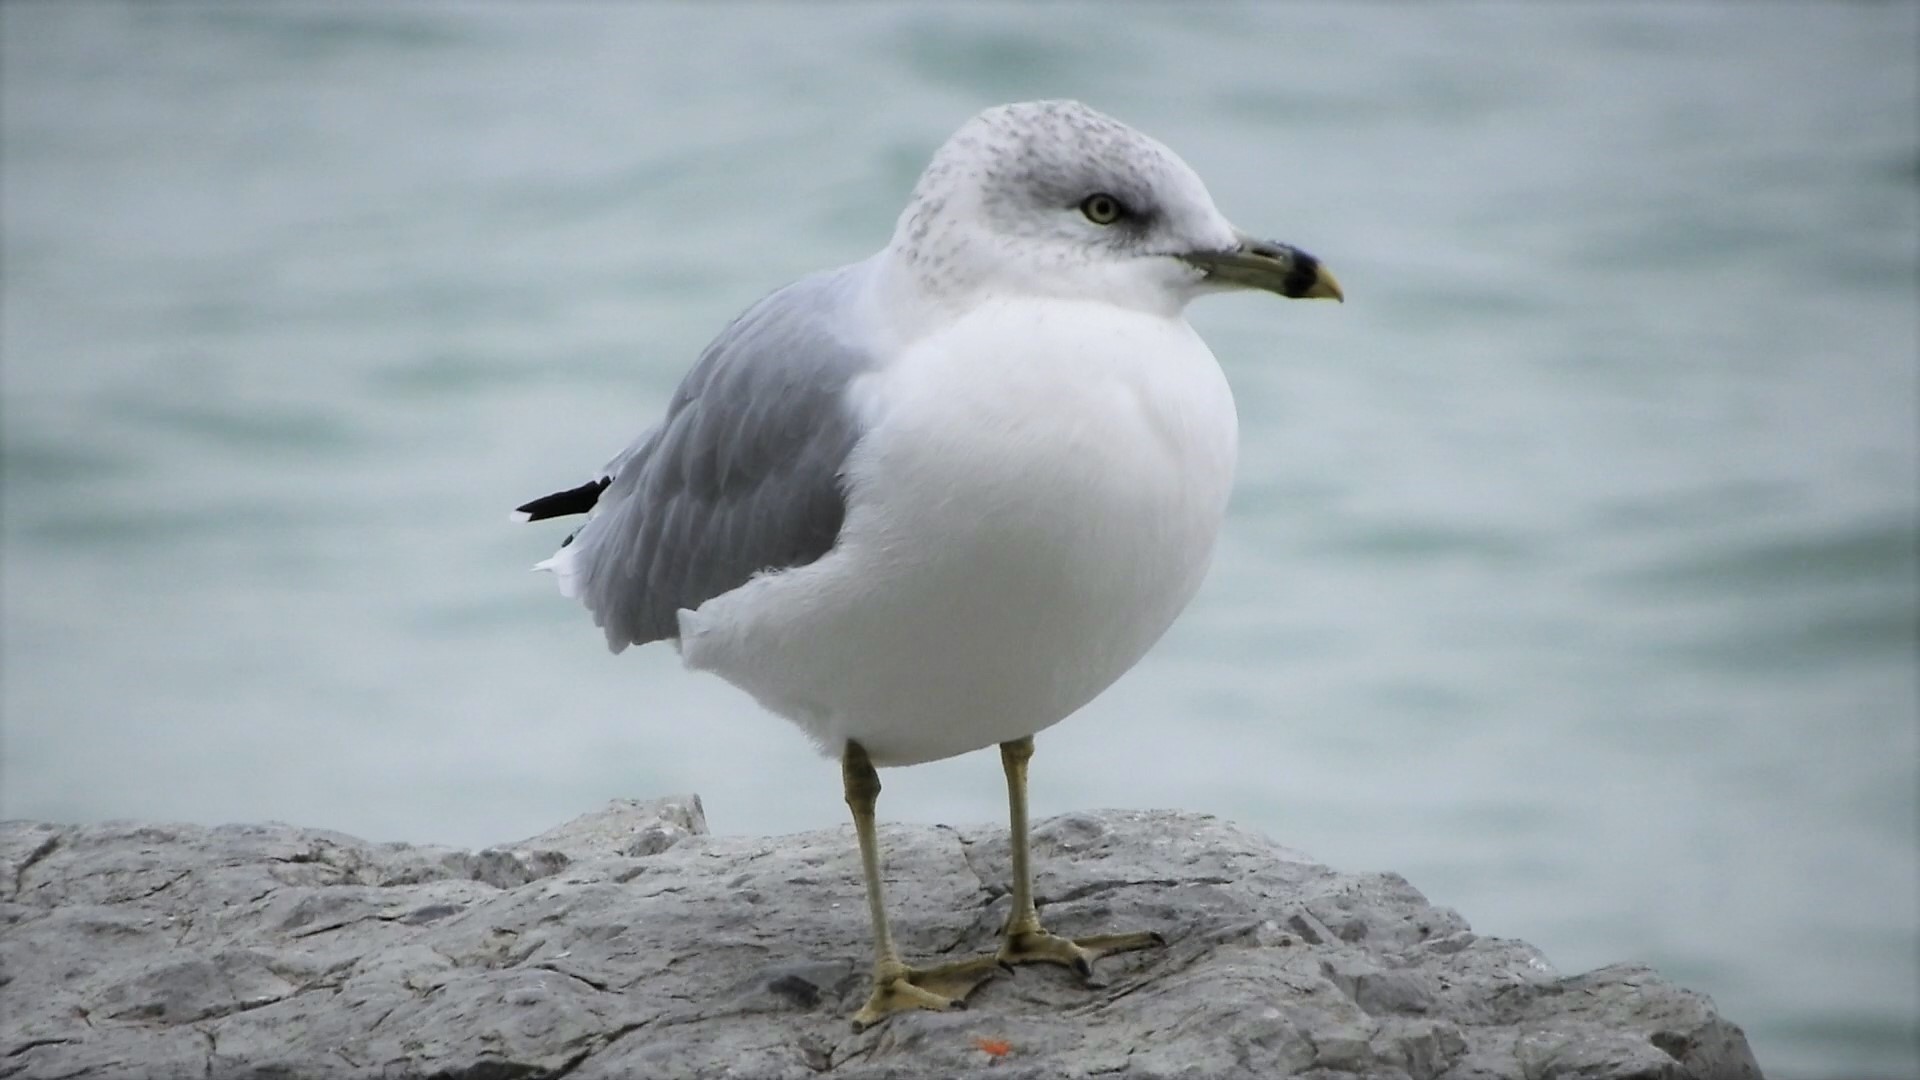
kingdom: Animalia
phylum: Chordata
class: Aves
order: Charadriiformes
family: Laridae
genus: Larus
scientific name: Larus delawarensis
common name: Ring-billed gull
